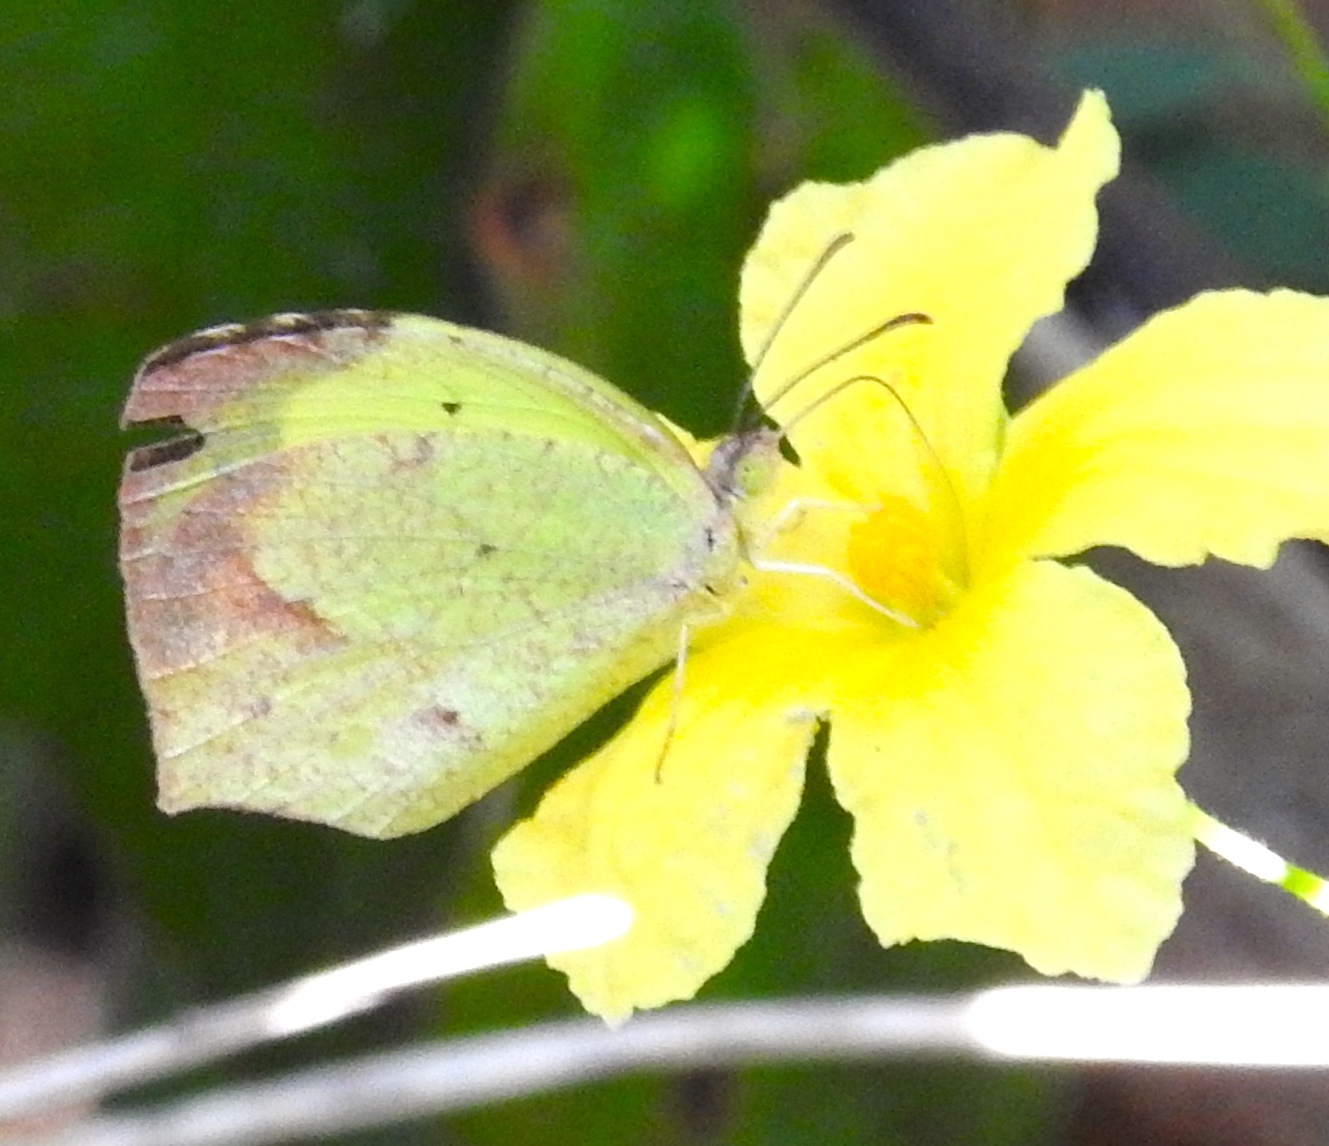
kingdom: Animalia
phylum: Arthropoda
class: Insecta
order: Lepidoptera
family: Pieridae
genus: Abaeis
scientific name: Abaeis mexicana
